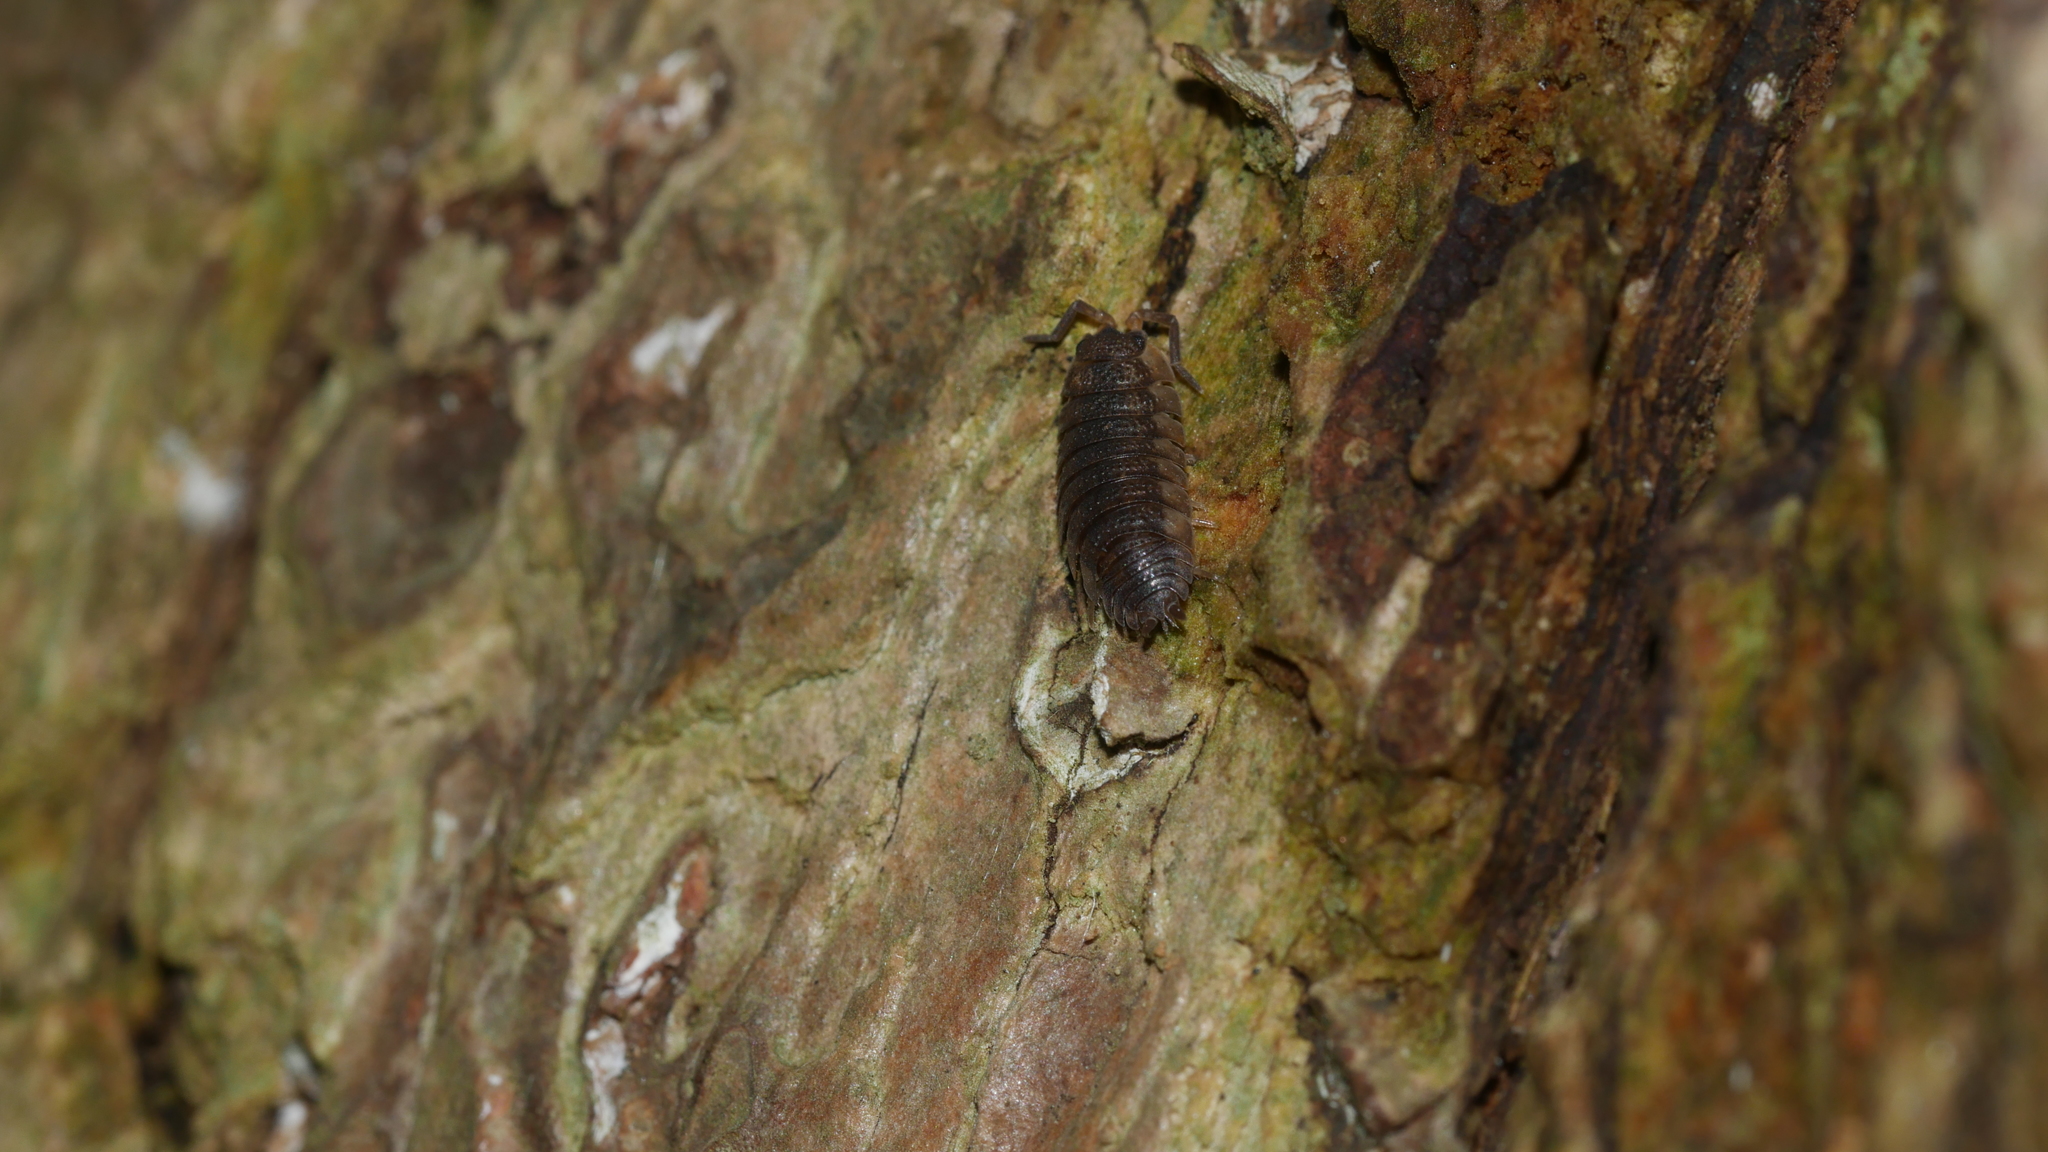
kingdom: Animalia
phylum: Arthropoda
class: Malacostraca
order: Isopoda
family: Porcellionidae
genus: Porcellio
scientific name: Porcellio scaber
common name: Common rough woodlouse
